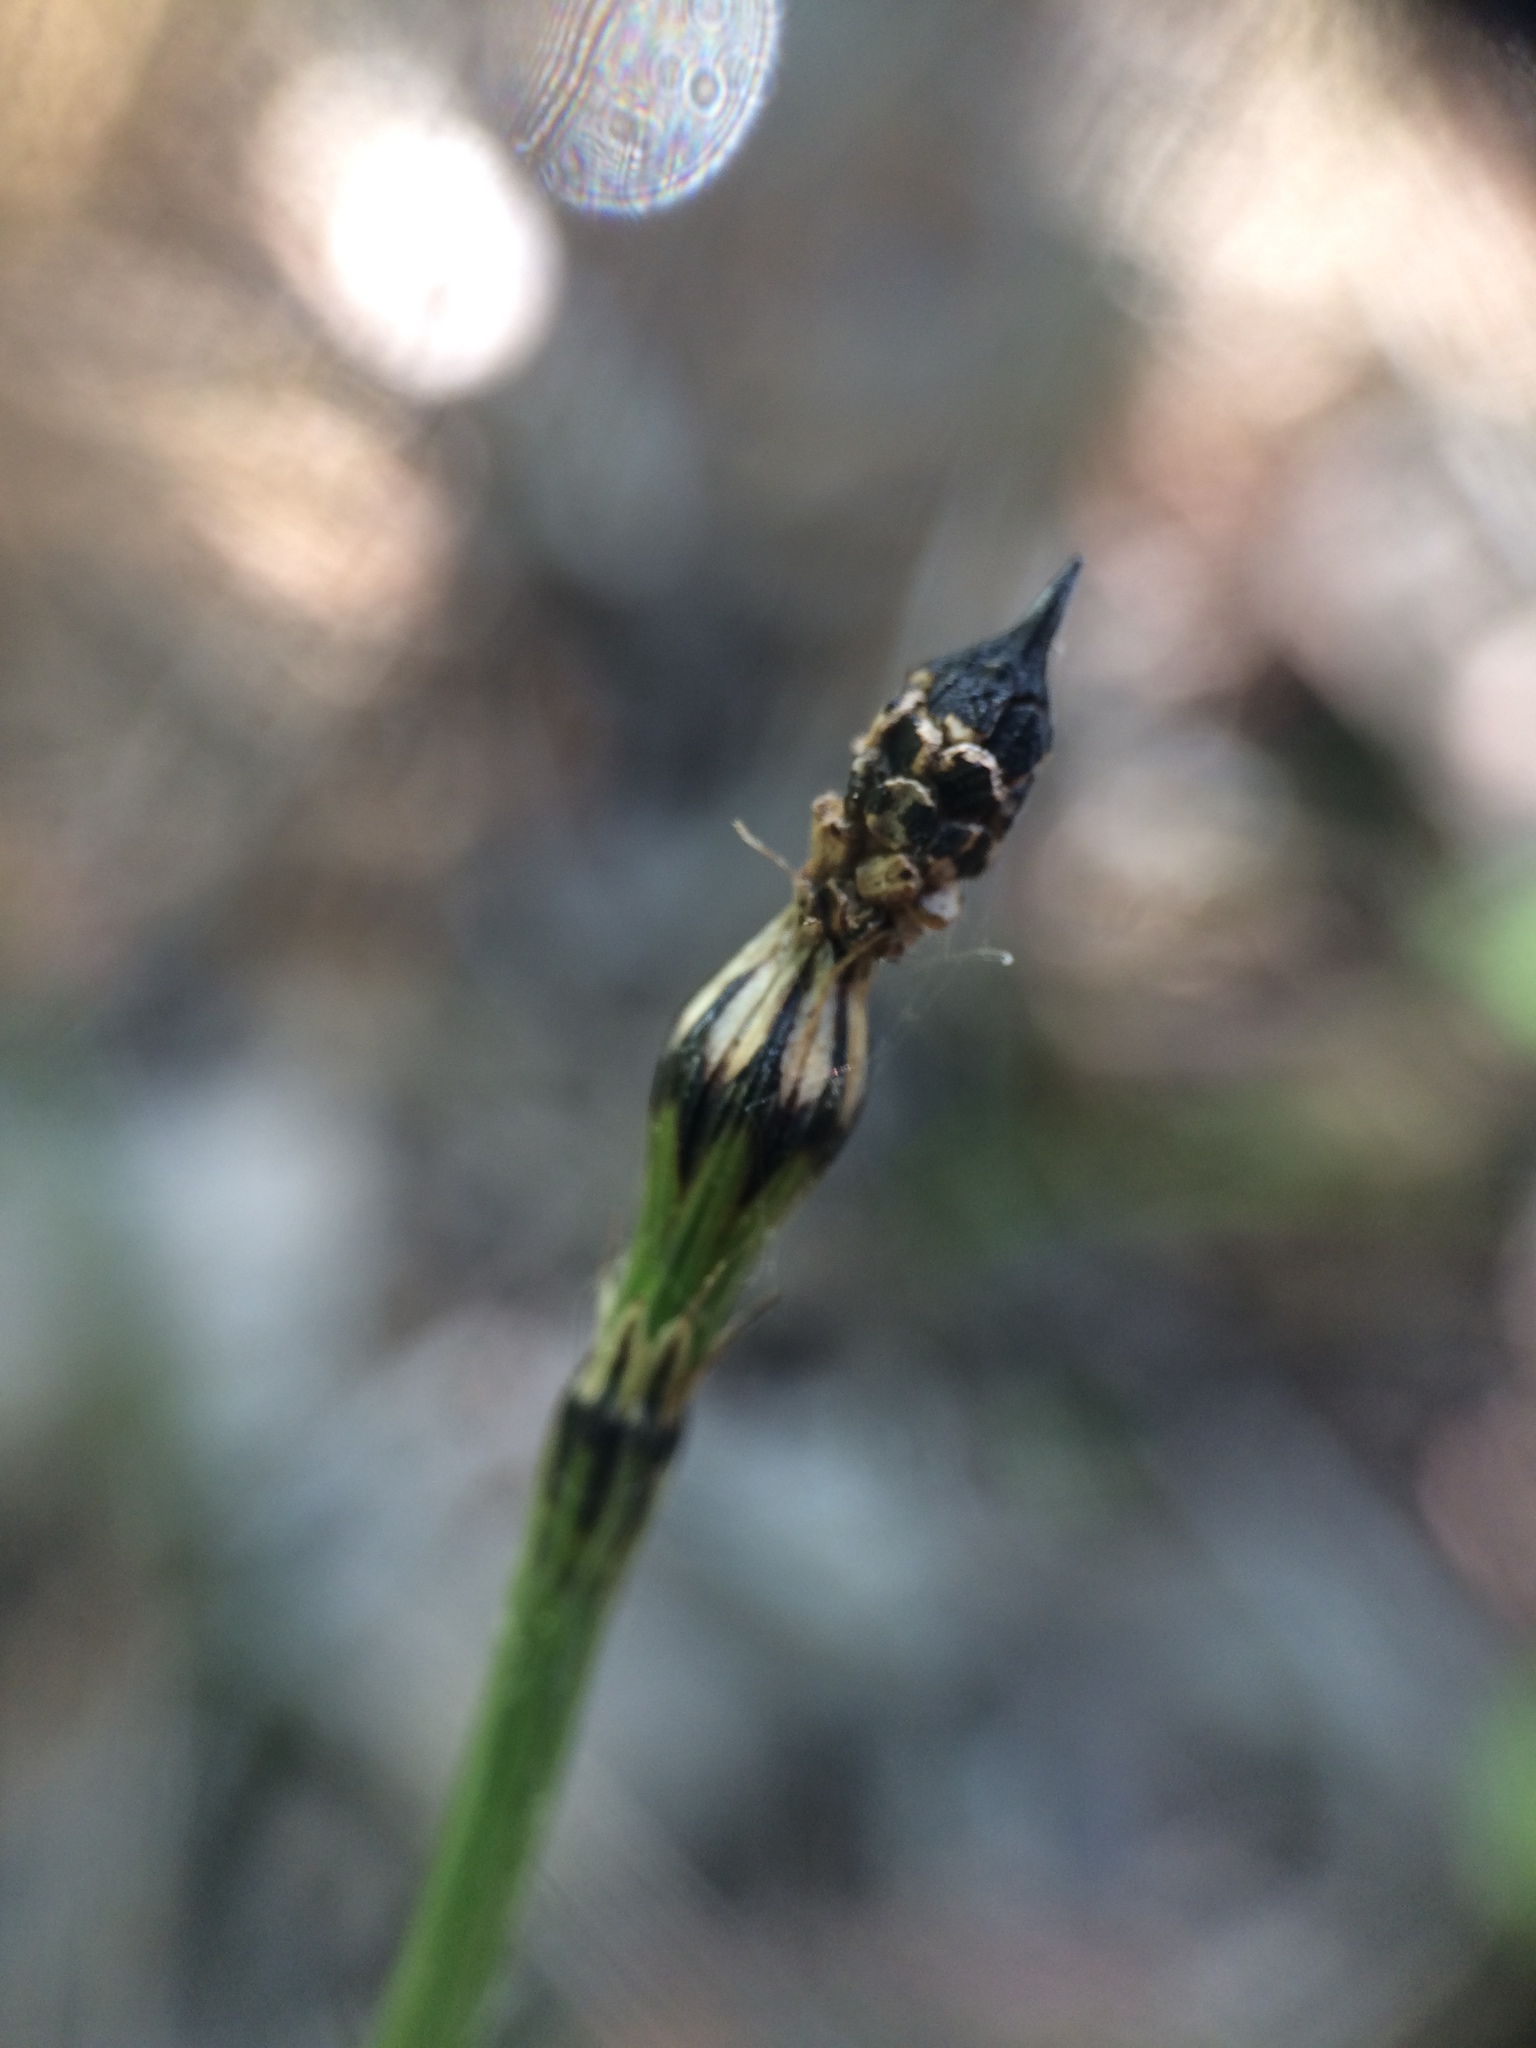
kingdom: Plantae
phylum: Tracheophyta
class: Polypodiopsida
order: Equisetales
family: Equisetaceae
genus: Equisetum
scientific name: Equisetum variegatum
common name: Variegated horsetail
